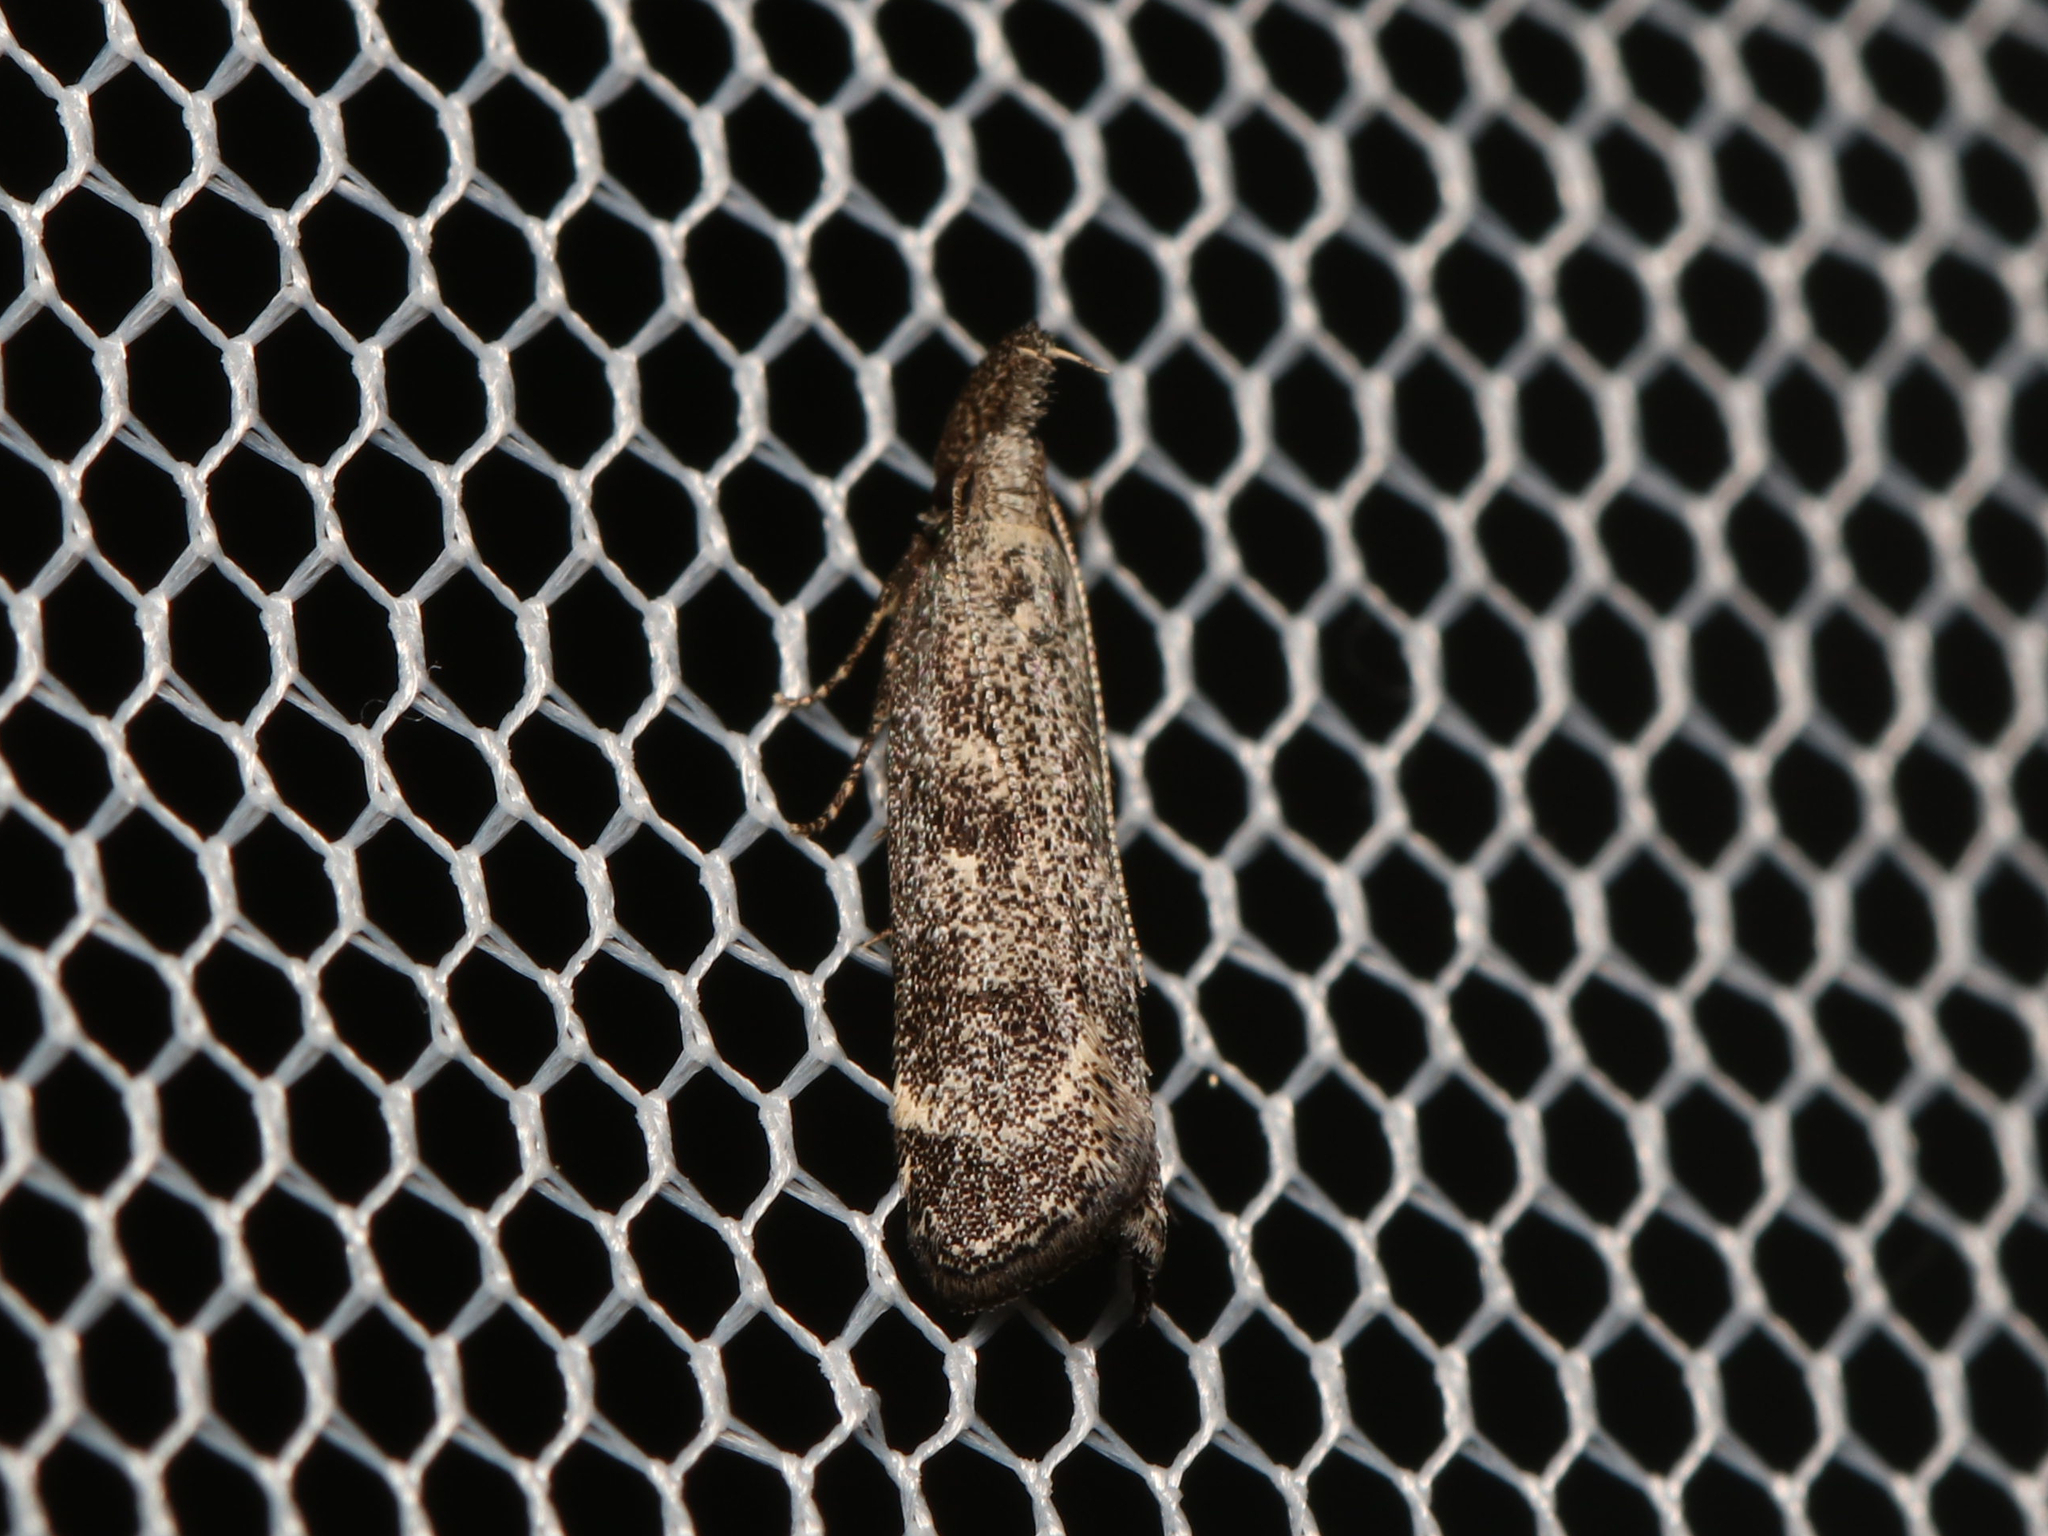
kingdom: Animalia
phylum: Arthropoda
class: Insecta
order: Lepidoptera
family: Gelechiidae
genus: Dichomeris
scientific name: Dichomeris inversella
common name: Inverse dichomeris moth
